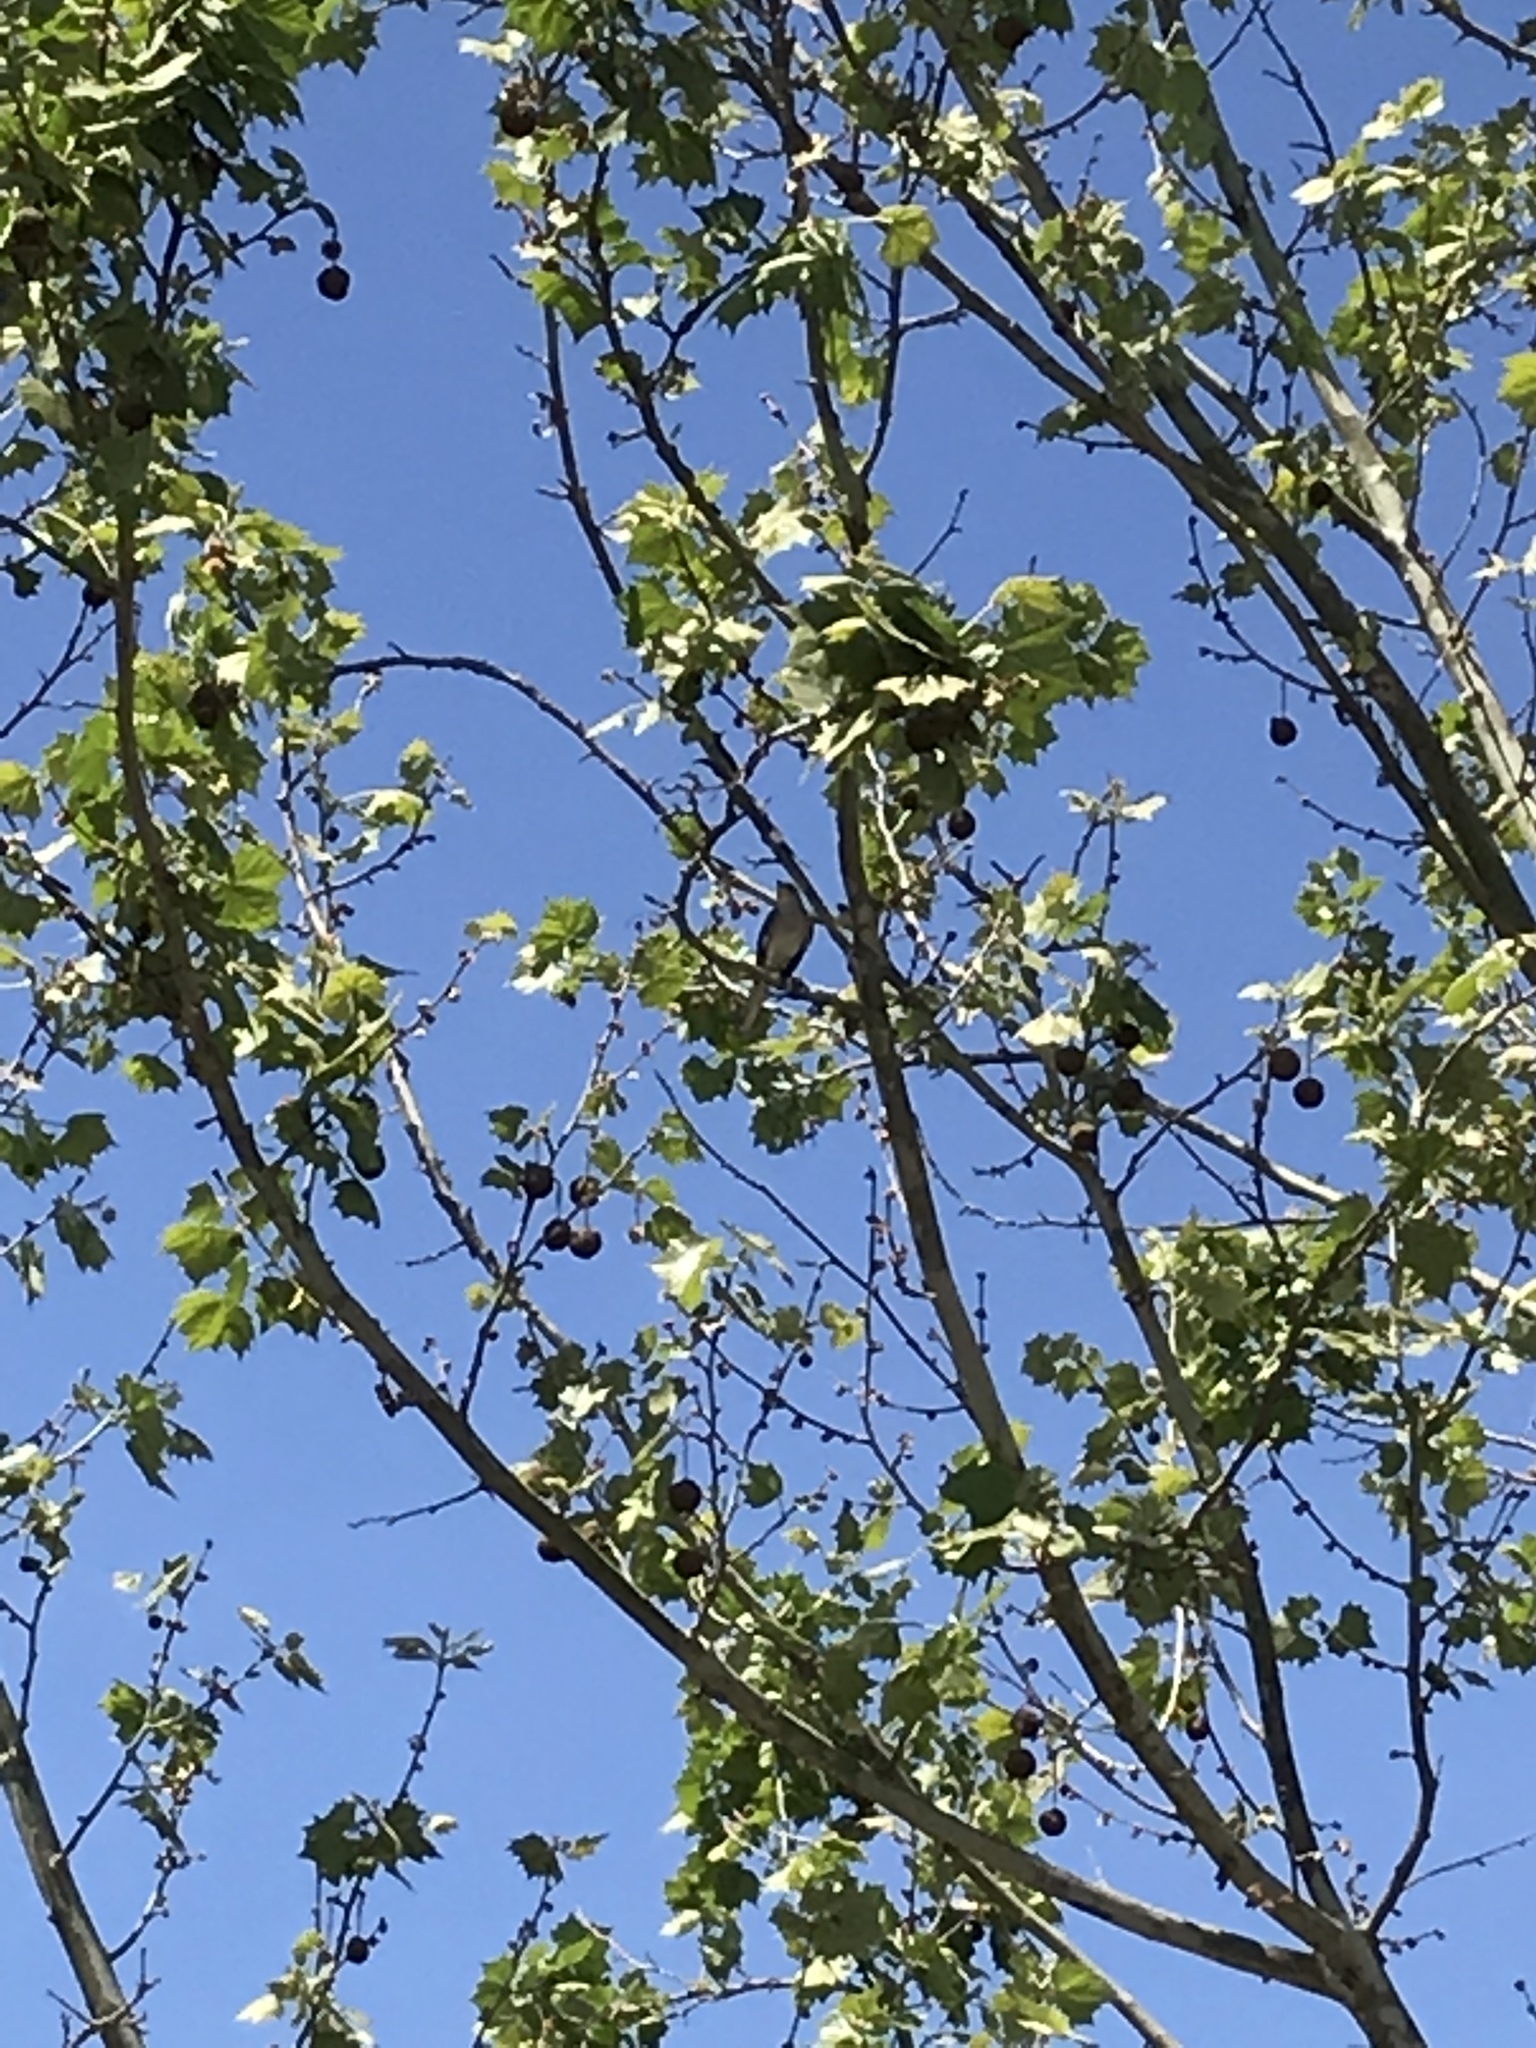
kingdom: Animalia
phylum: Chordata
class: Aves
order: Passeriformes
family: Mimidae
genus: Mimus
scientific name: Mimus polyglottos
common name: Northern mockingbird
